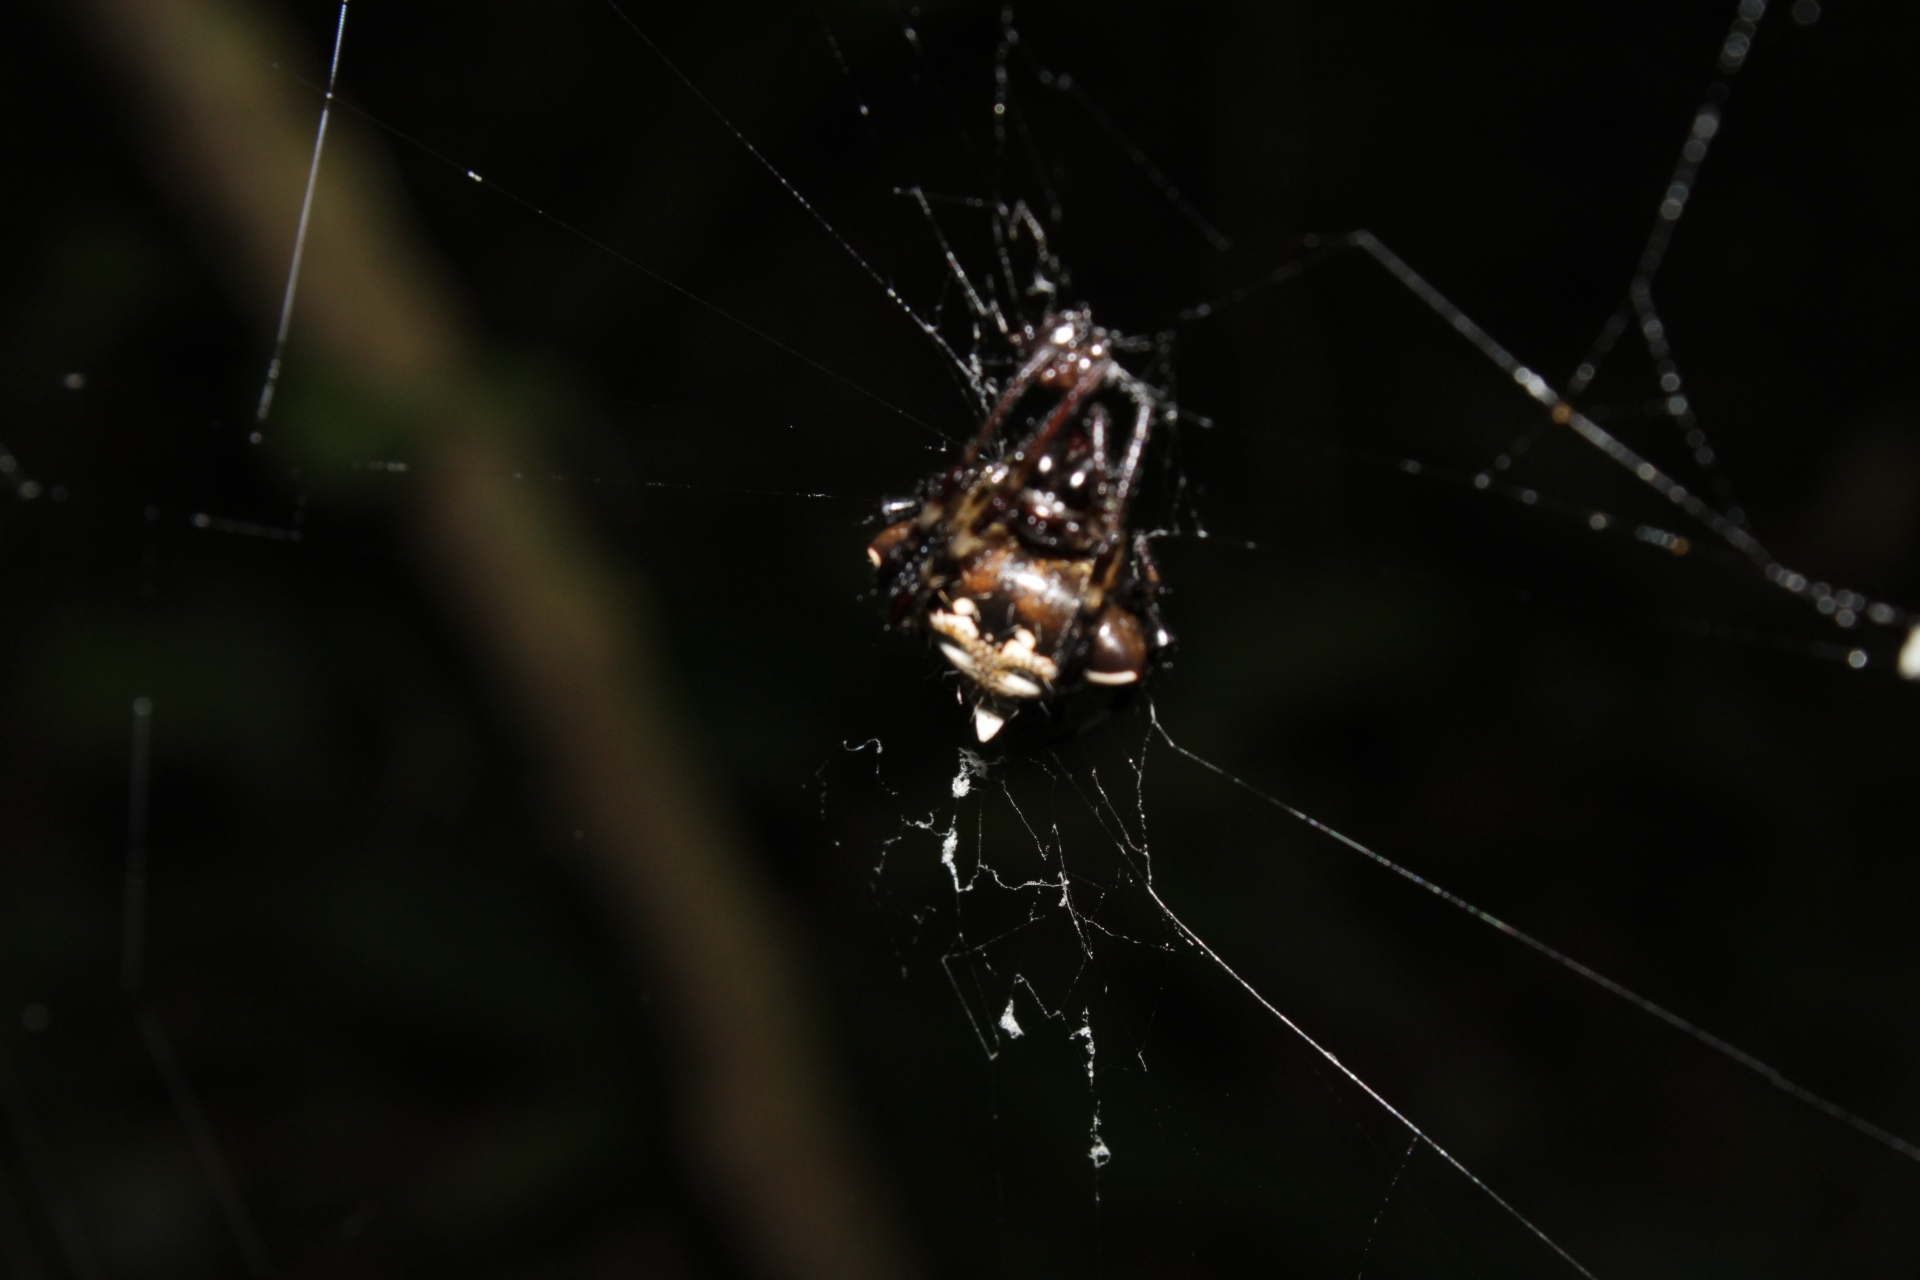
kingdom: Animalia
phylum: Arthropoda
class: Arachnida
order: Araneae
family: Araneidae
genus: Verrucosa
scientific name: Verrucosa arenata
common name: Orb weavers
